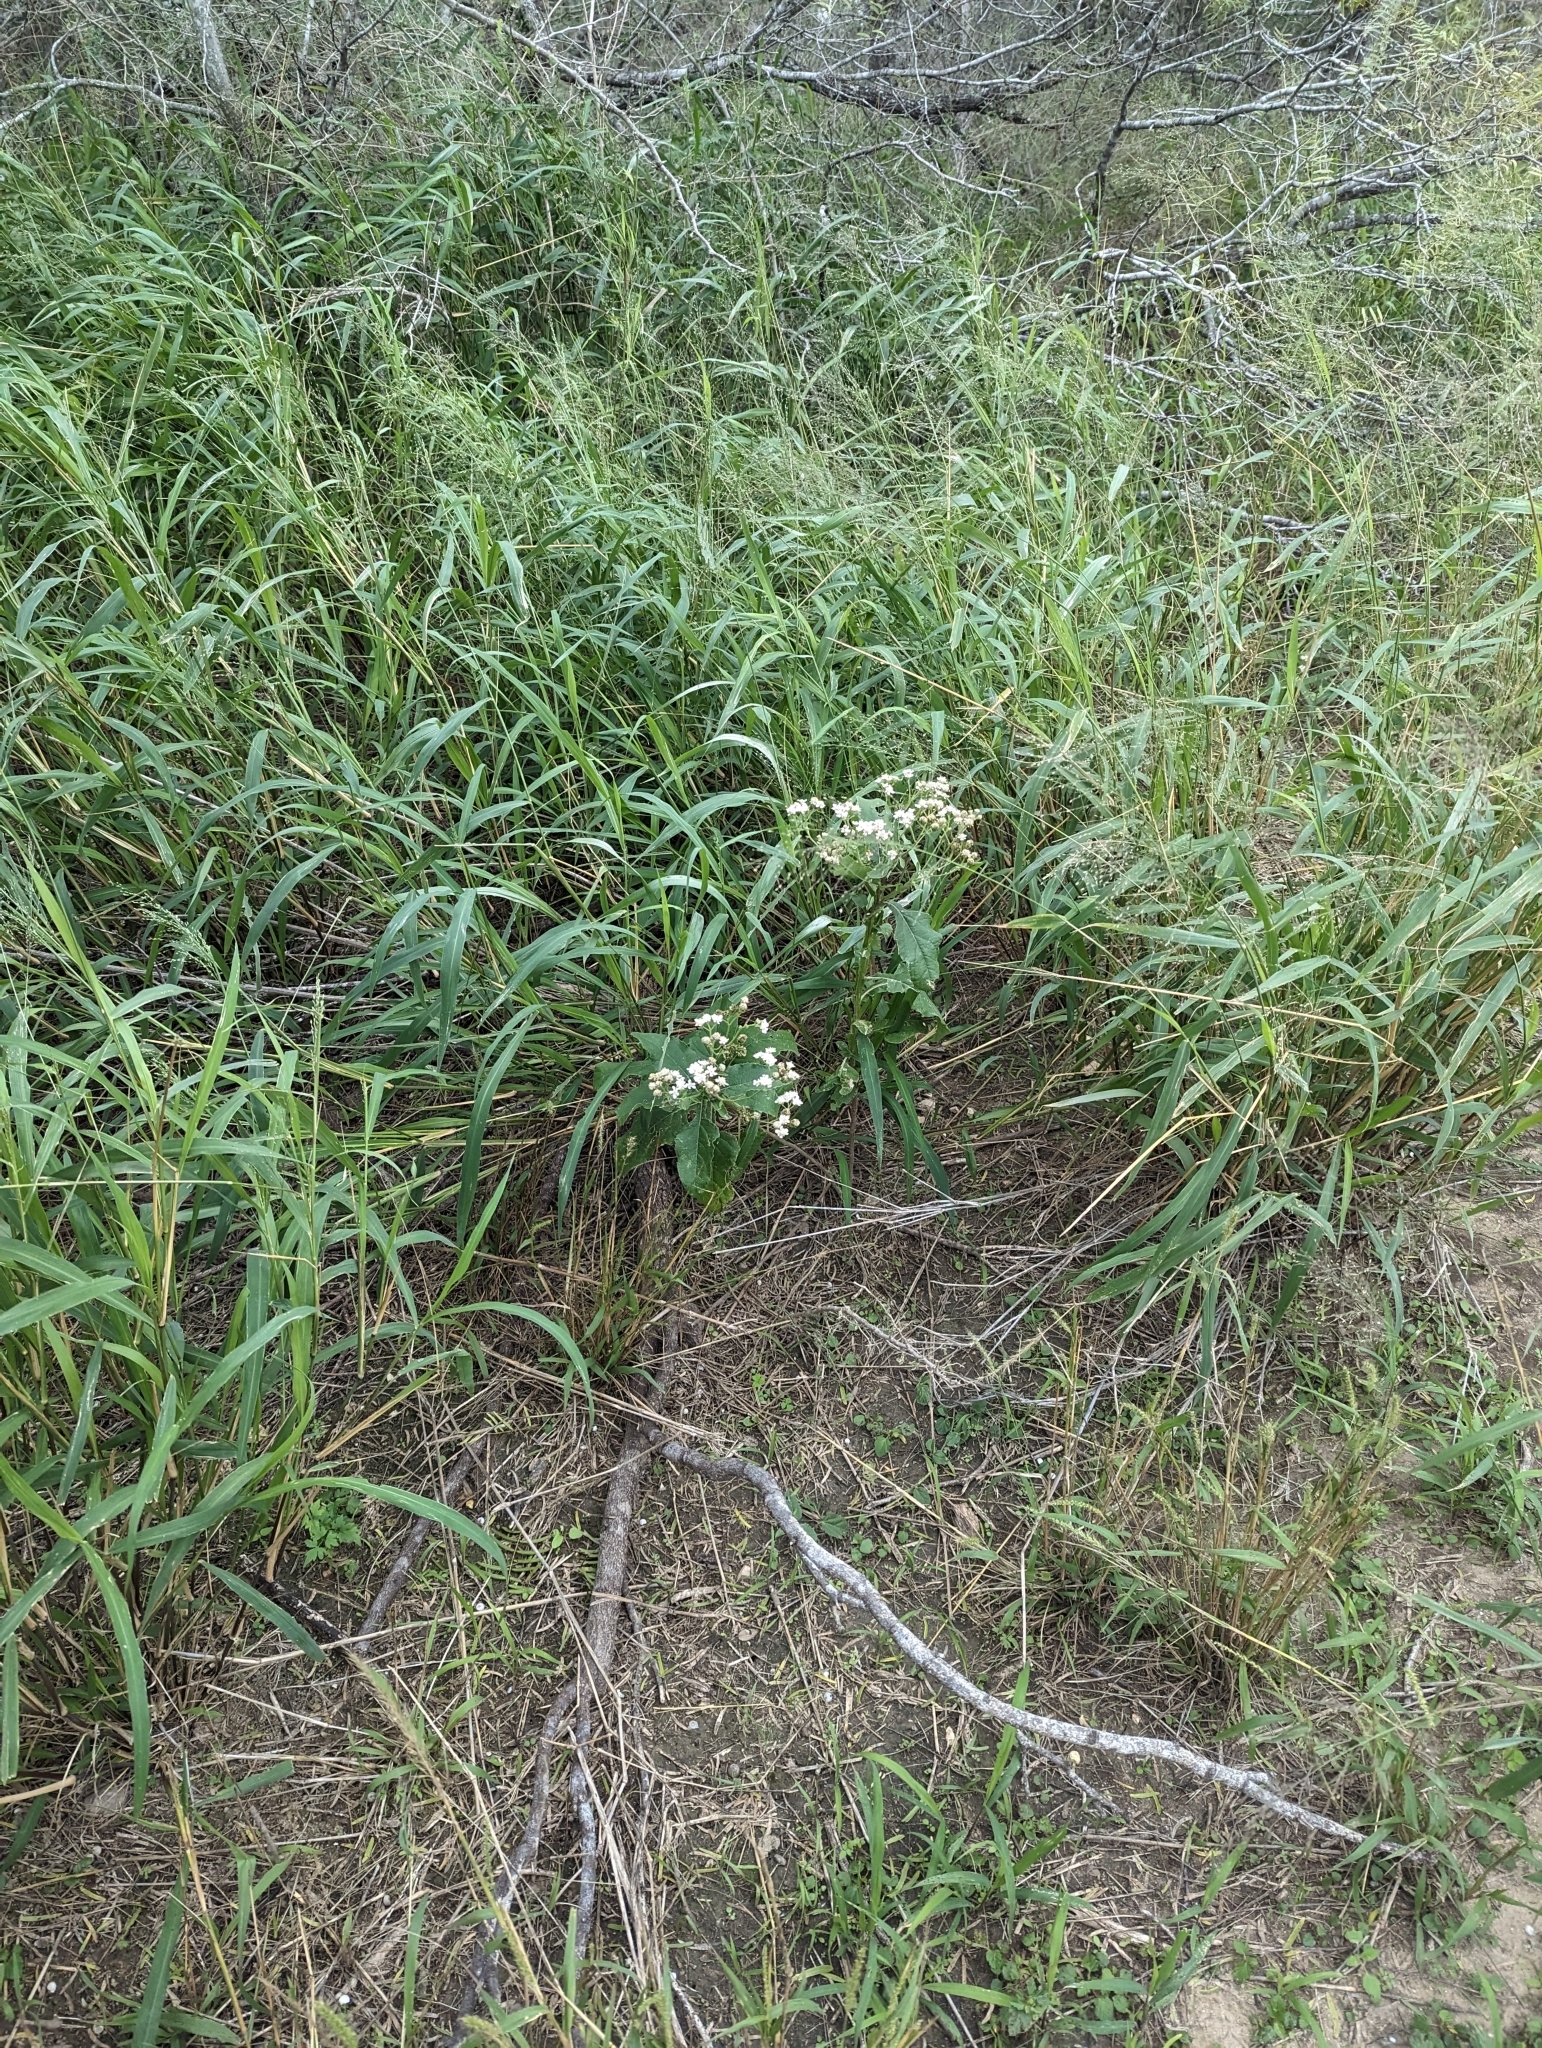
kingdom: Plantae
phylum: Tracheophyta
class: Magnoliopsida
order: Asterales
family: Asteraceae
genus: Verbesina
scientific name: Verbesina microptera
